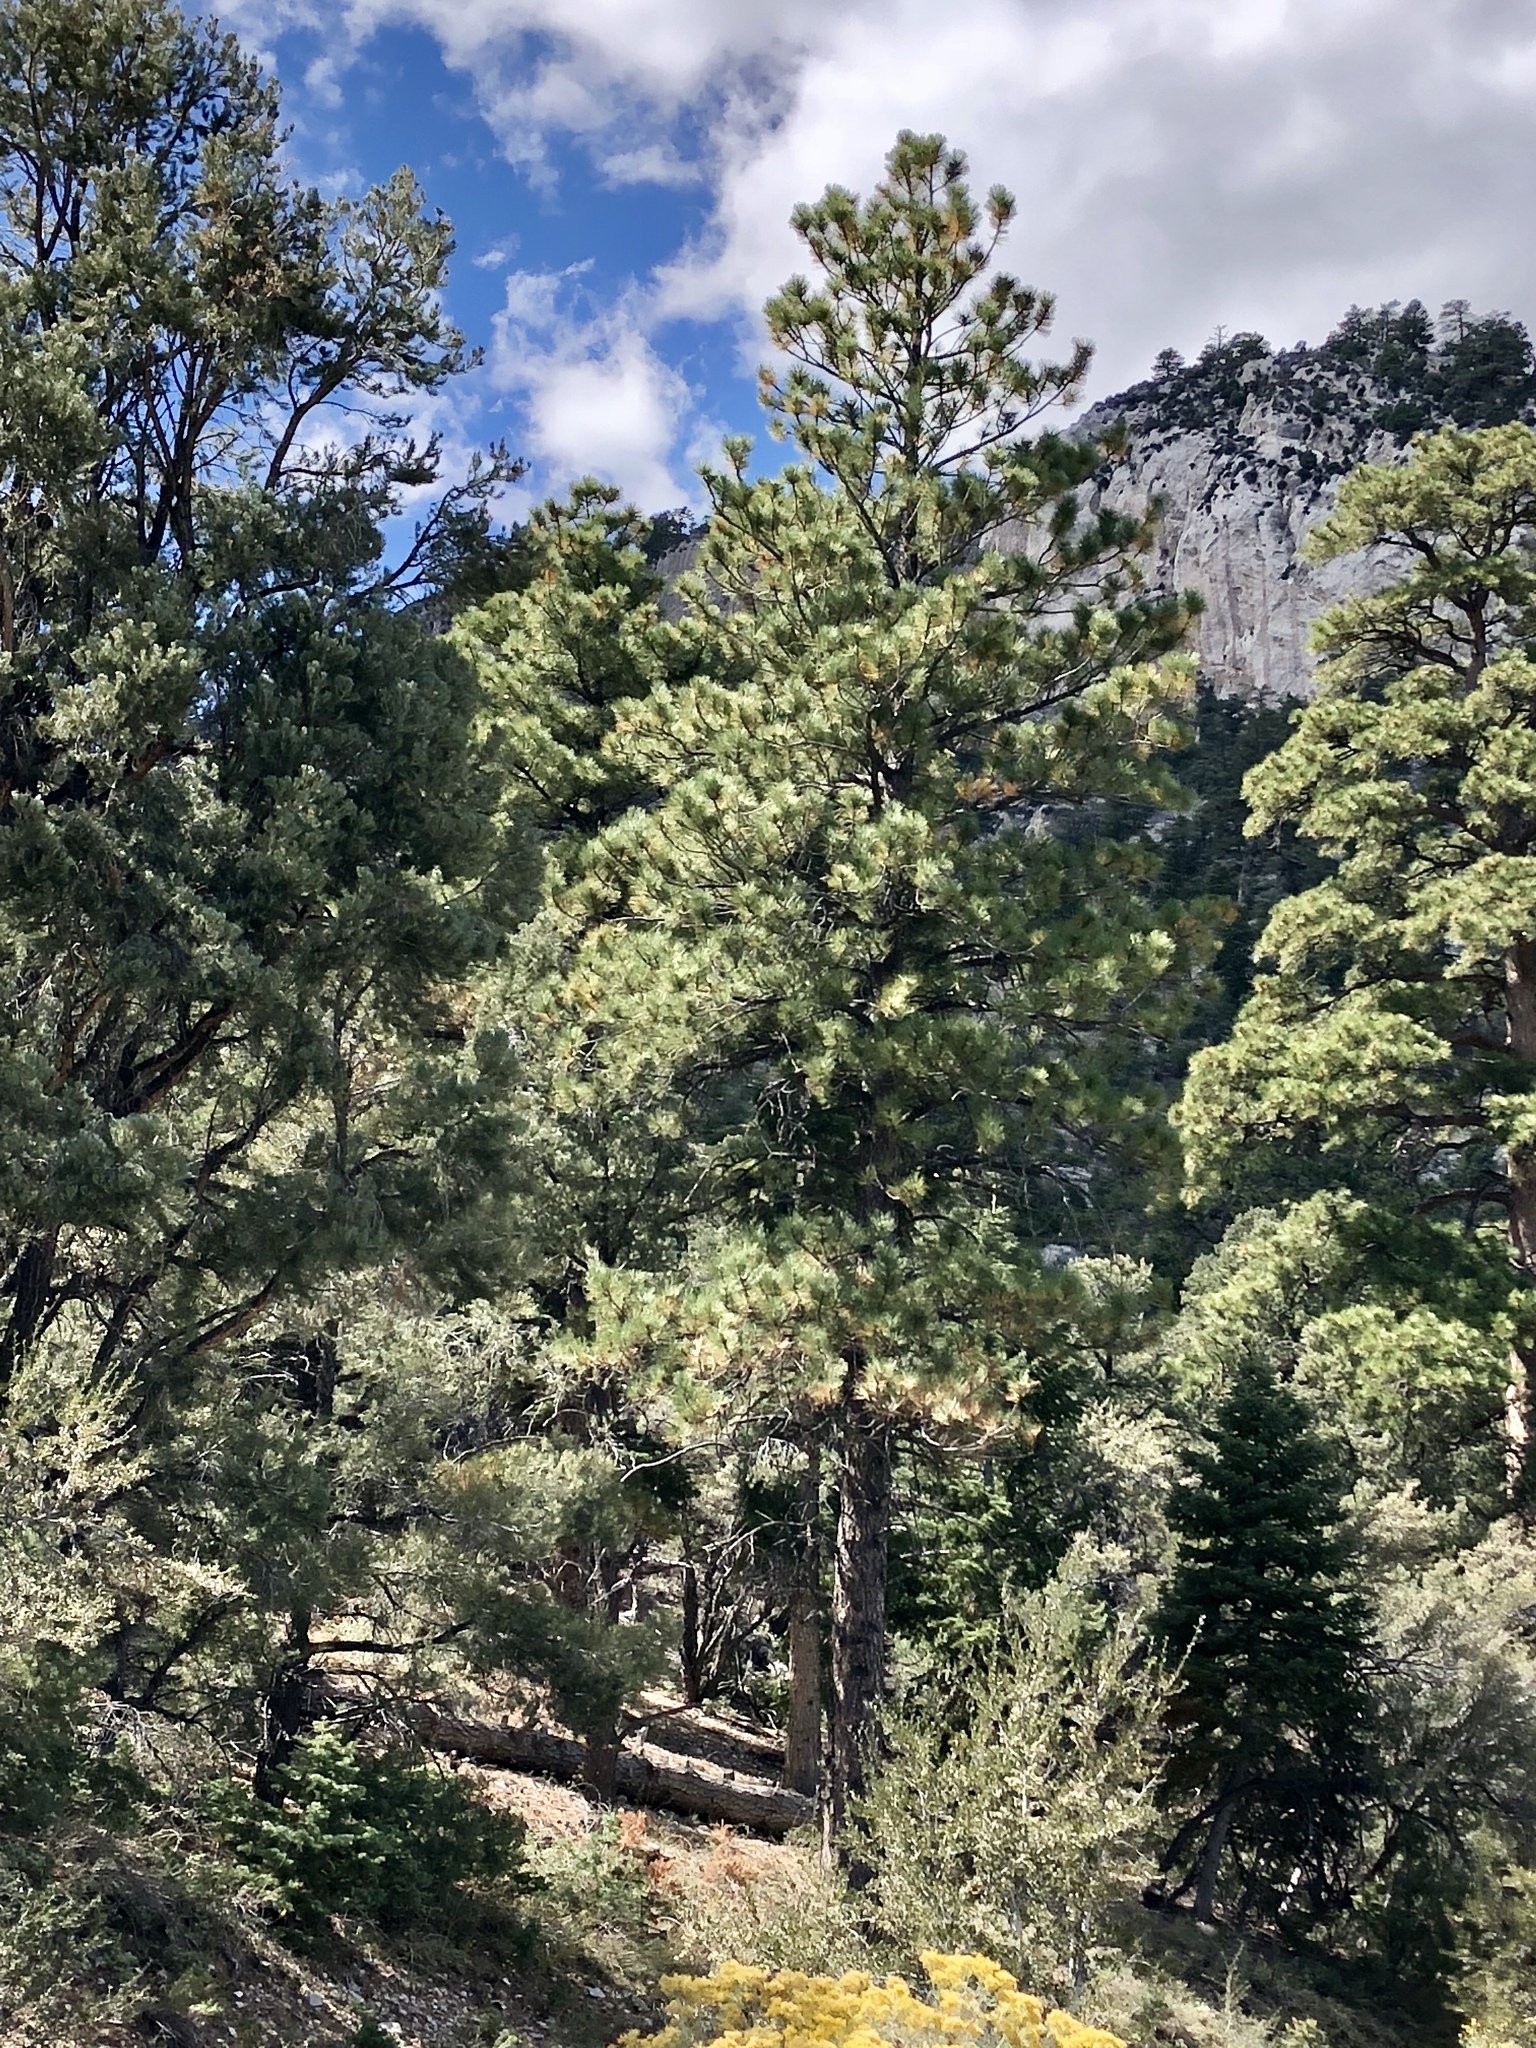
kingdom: Plantae
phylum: Tracheophyta
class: Pinopsida
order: Pinales
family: Pinaceae
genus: Pinus
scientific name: Pinus ponderosa
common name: Western yellow-pine
